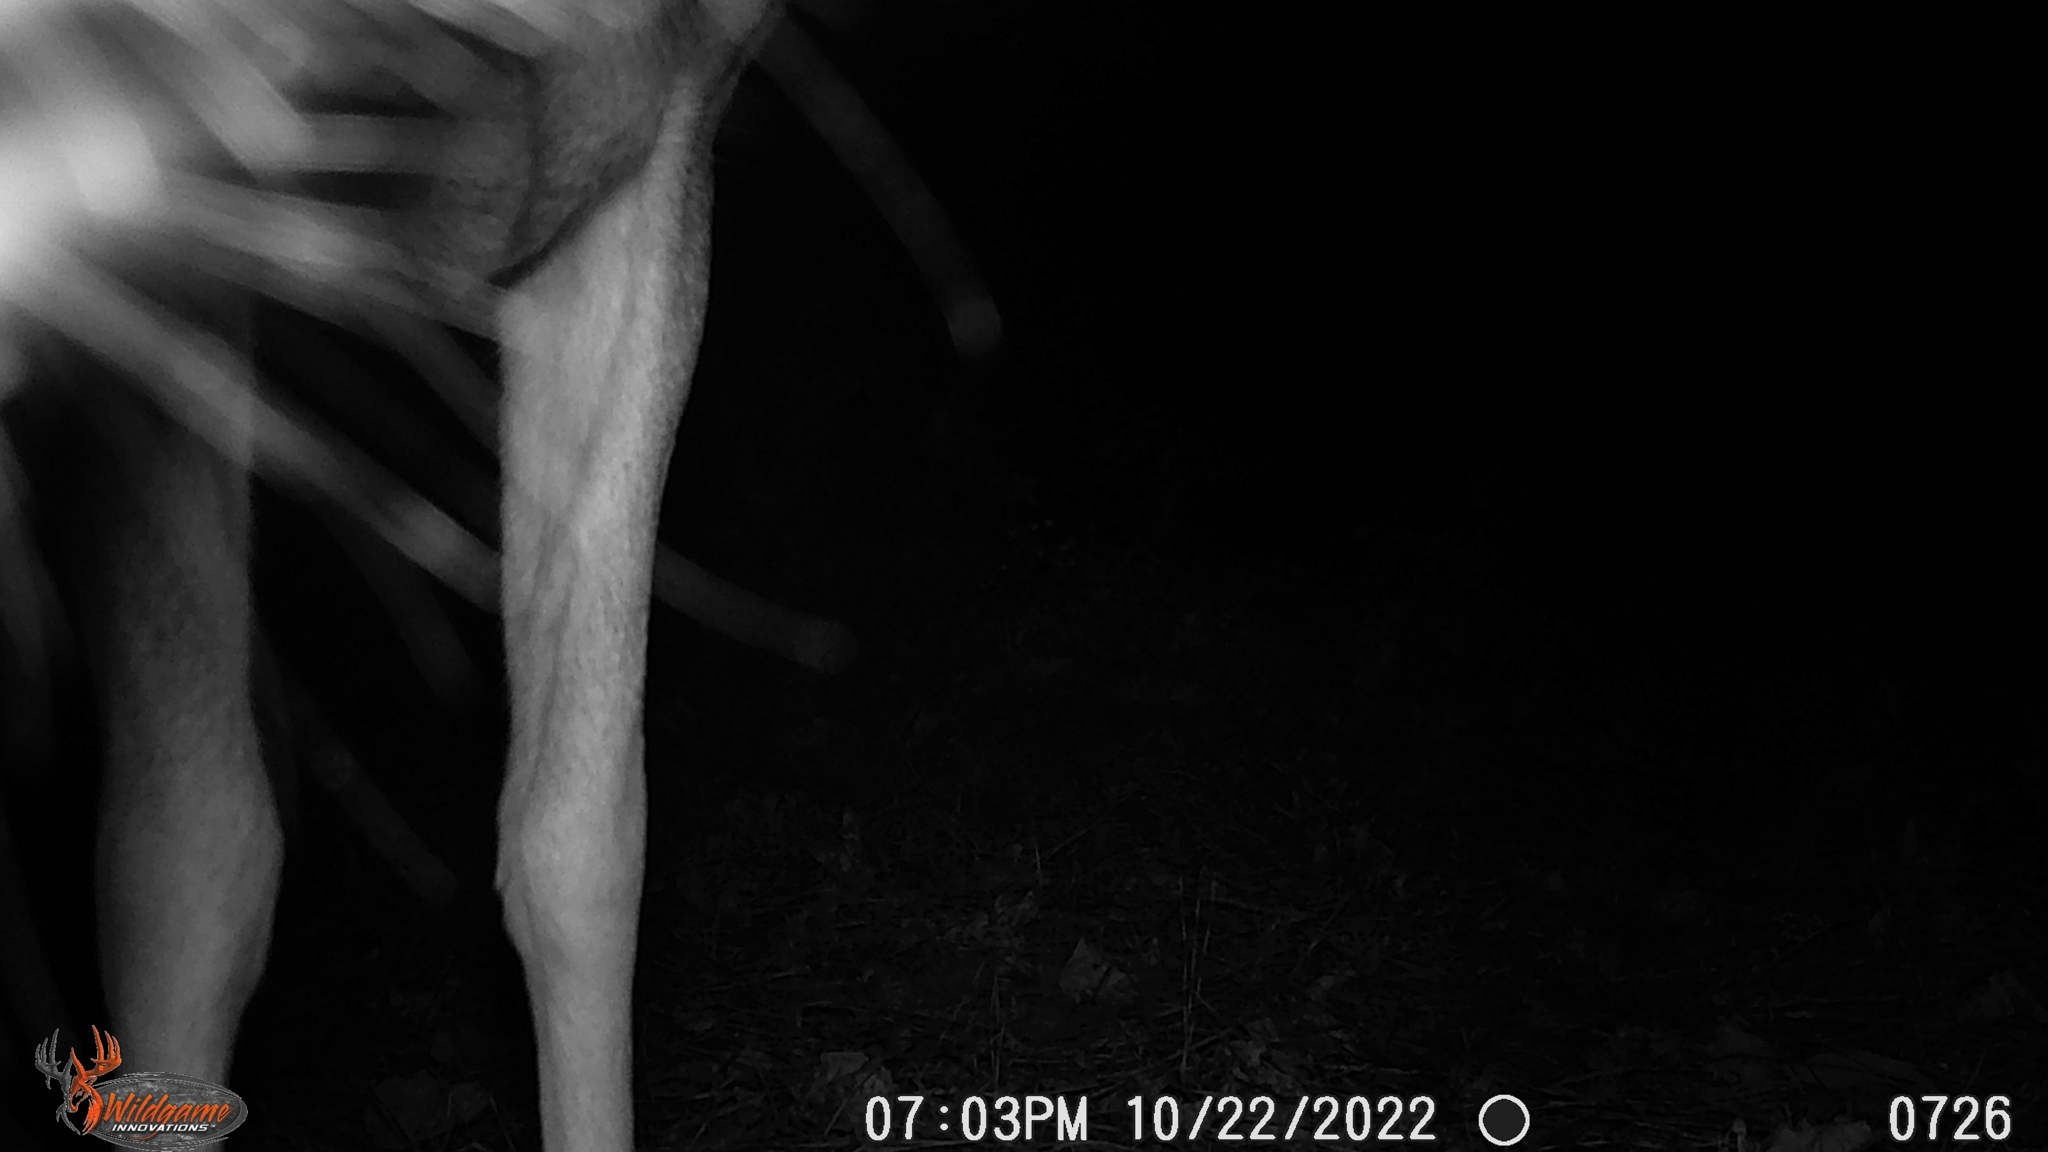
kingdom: Animalia
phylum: Chordata
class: Mammalia
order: Artiodactyla
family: Cervidae
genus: Odocoileus
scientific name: Odocoileus virginianus
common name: White-tailed deer
